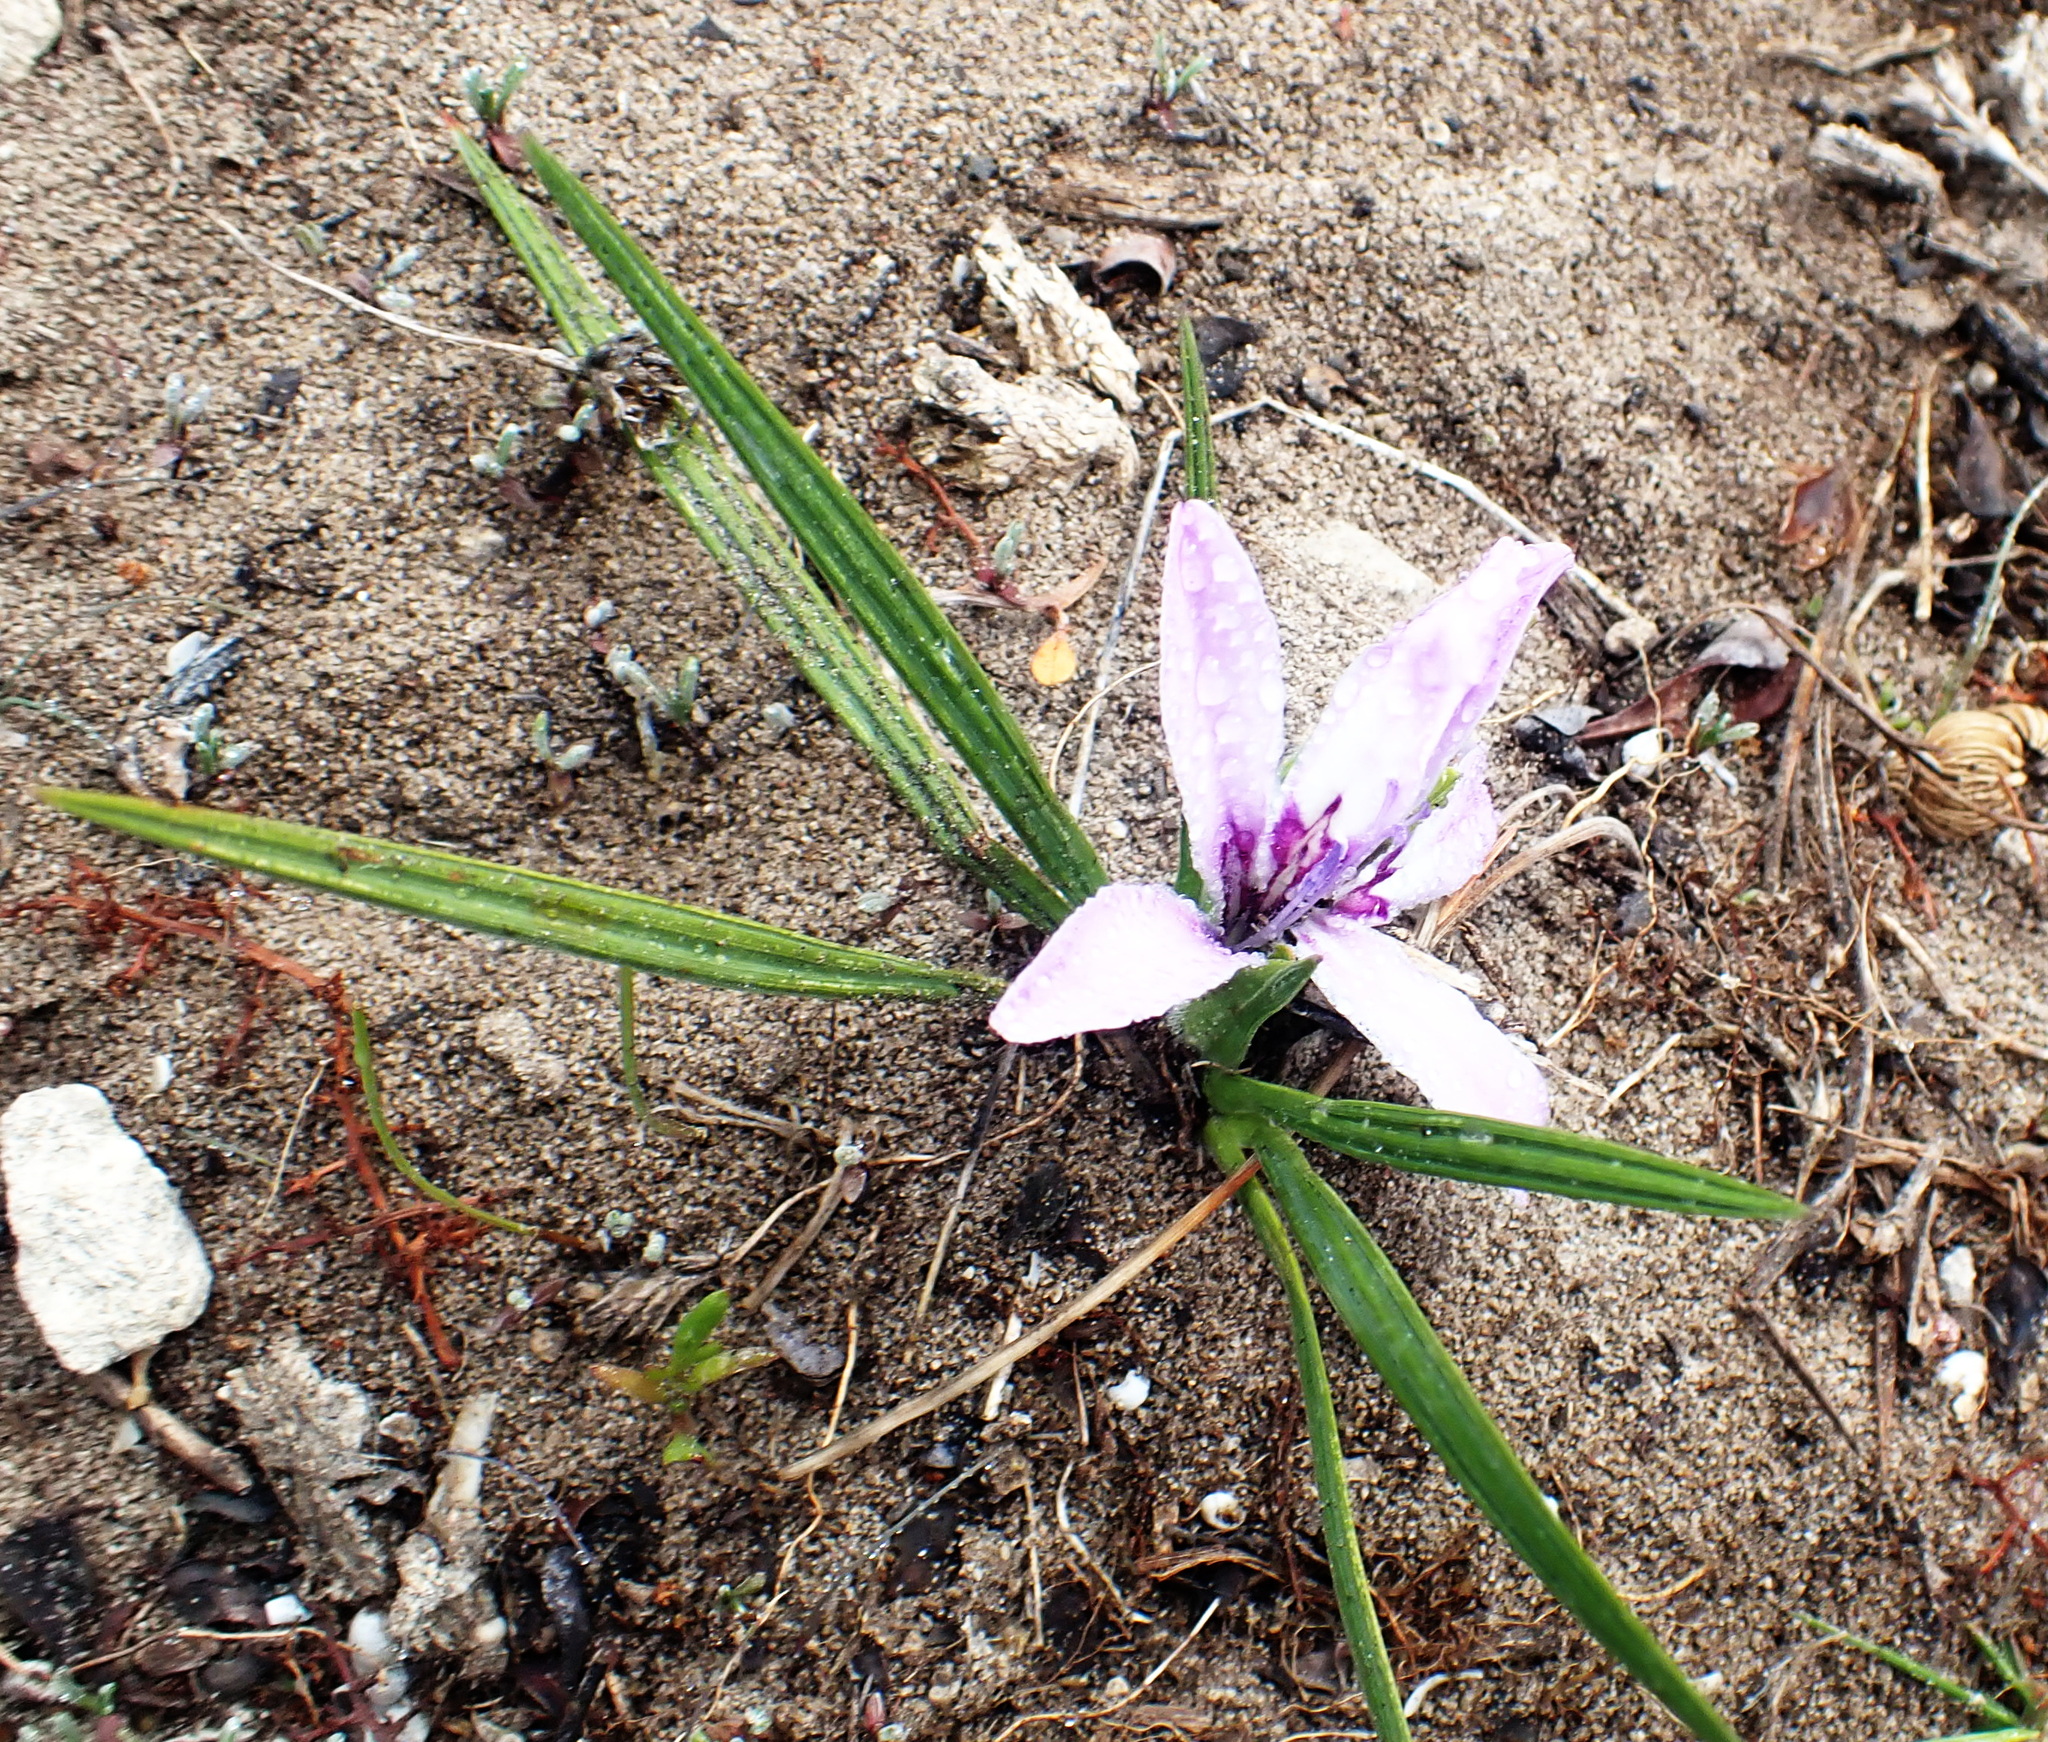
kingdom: Plantae
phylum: Tracheophyta
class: Liliopsida
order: Asparagales
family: Iridaceae
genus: Babiana
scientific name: Babiana ambigua
